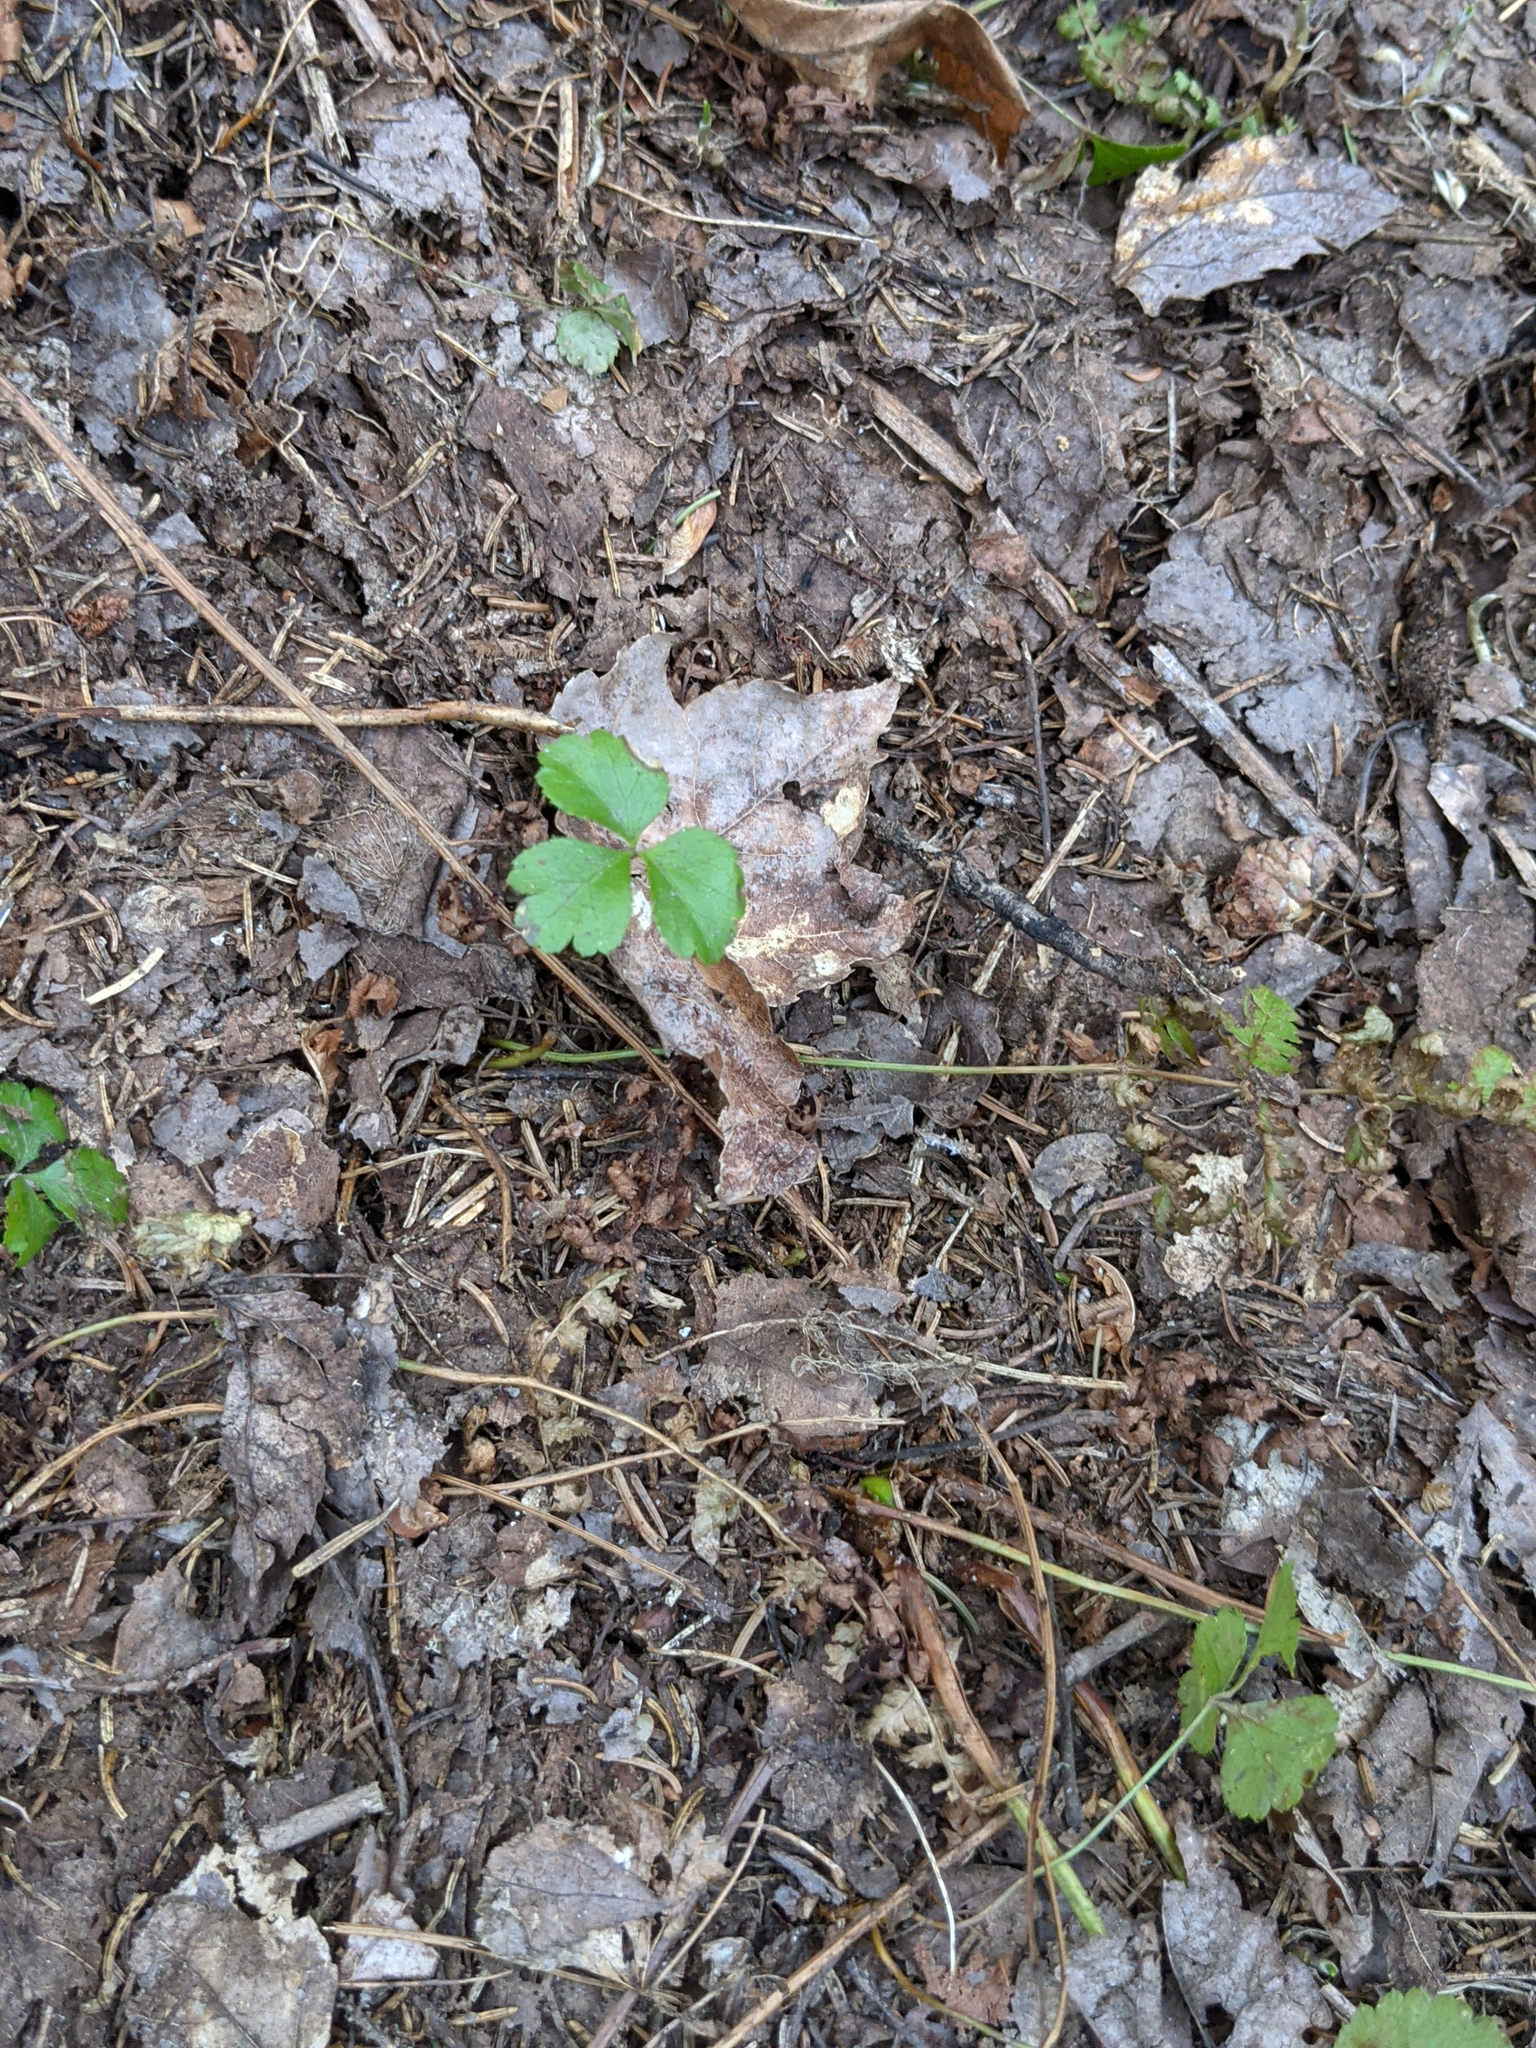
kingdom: Plantae
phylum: Tracheophyta
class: Magnoliopsida
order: Ranunculales
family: Ranunculaceae
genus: Coptis
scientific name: Coptis trifolia
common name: Canker-root
